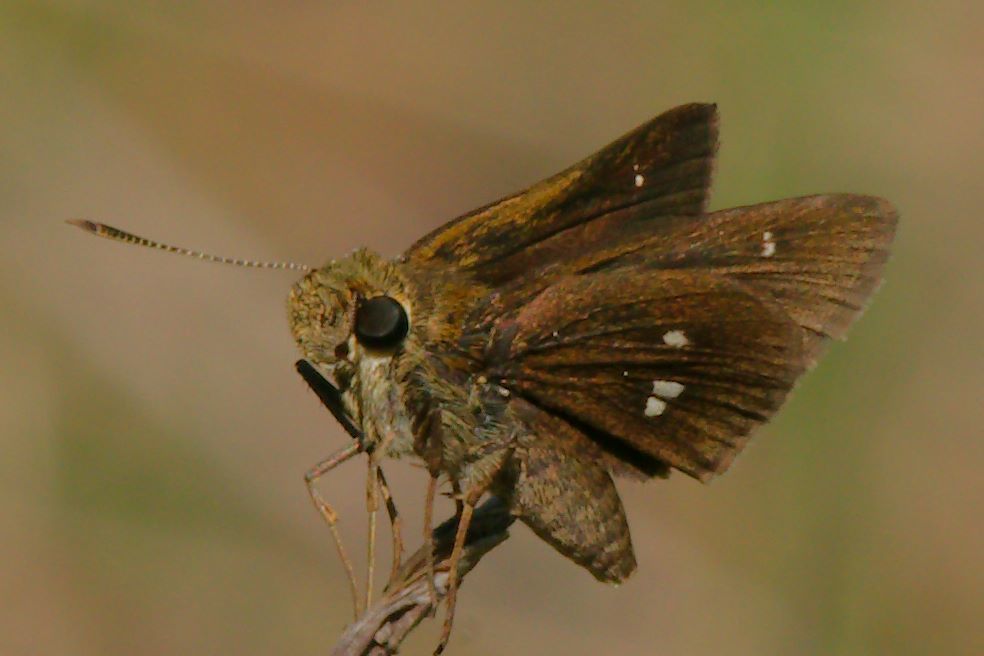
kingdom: Animalia
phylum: Arthropoda
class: Insecta
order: Lepidoptera
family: Hesperiidae
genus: Oligoria
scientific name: Oligoria maculata
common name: Twin-spot skipper
